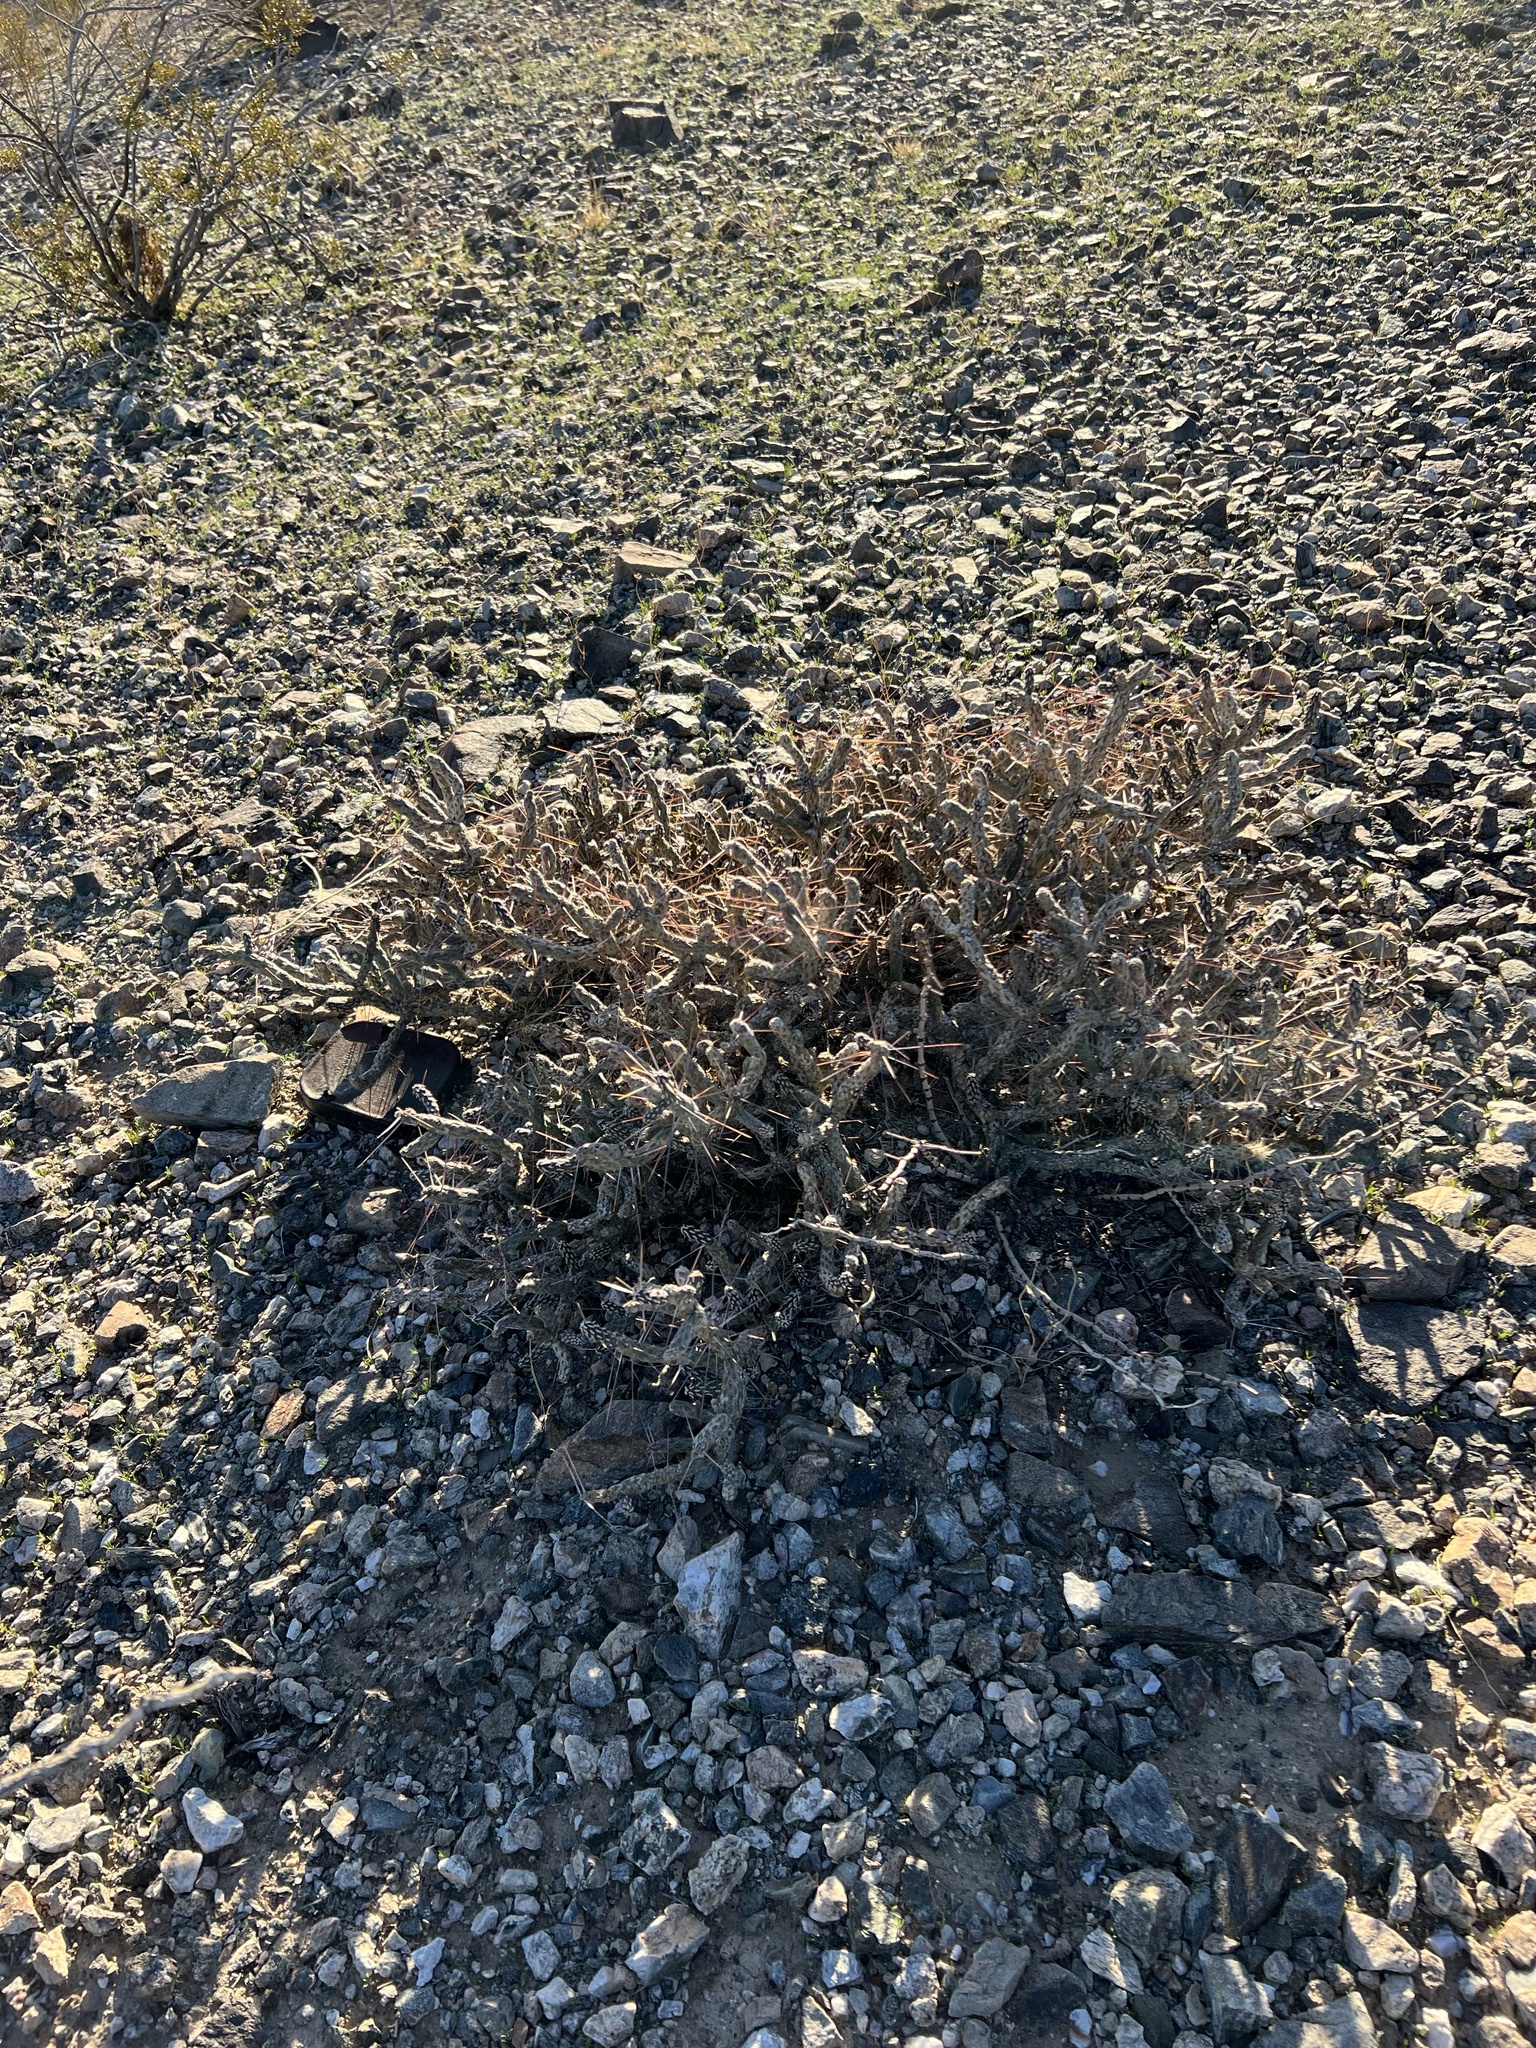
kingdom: Plantae
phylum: Tracheophyta
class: Magnoliopsida
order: Caryophyllales
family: Cactaceae
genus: Cylindropuntia
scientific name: Cylindropuntia ramosissima
